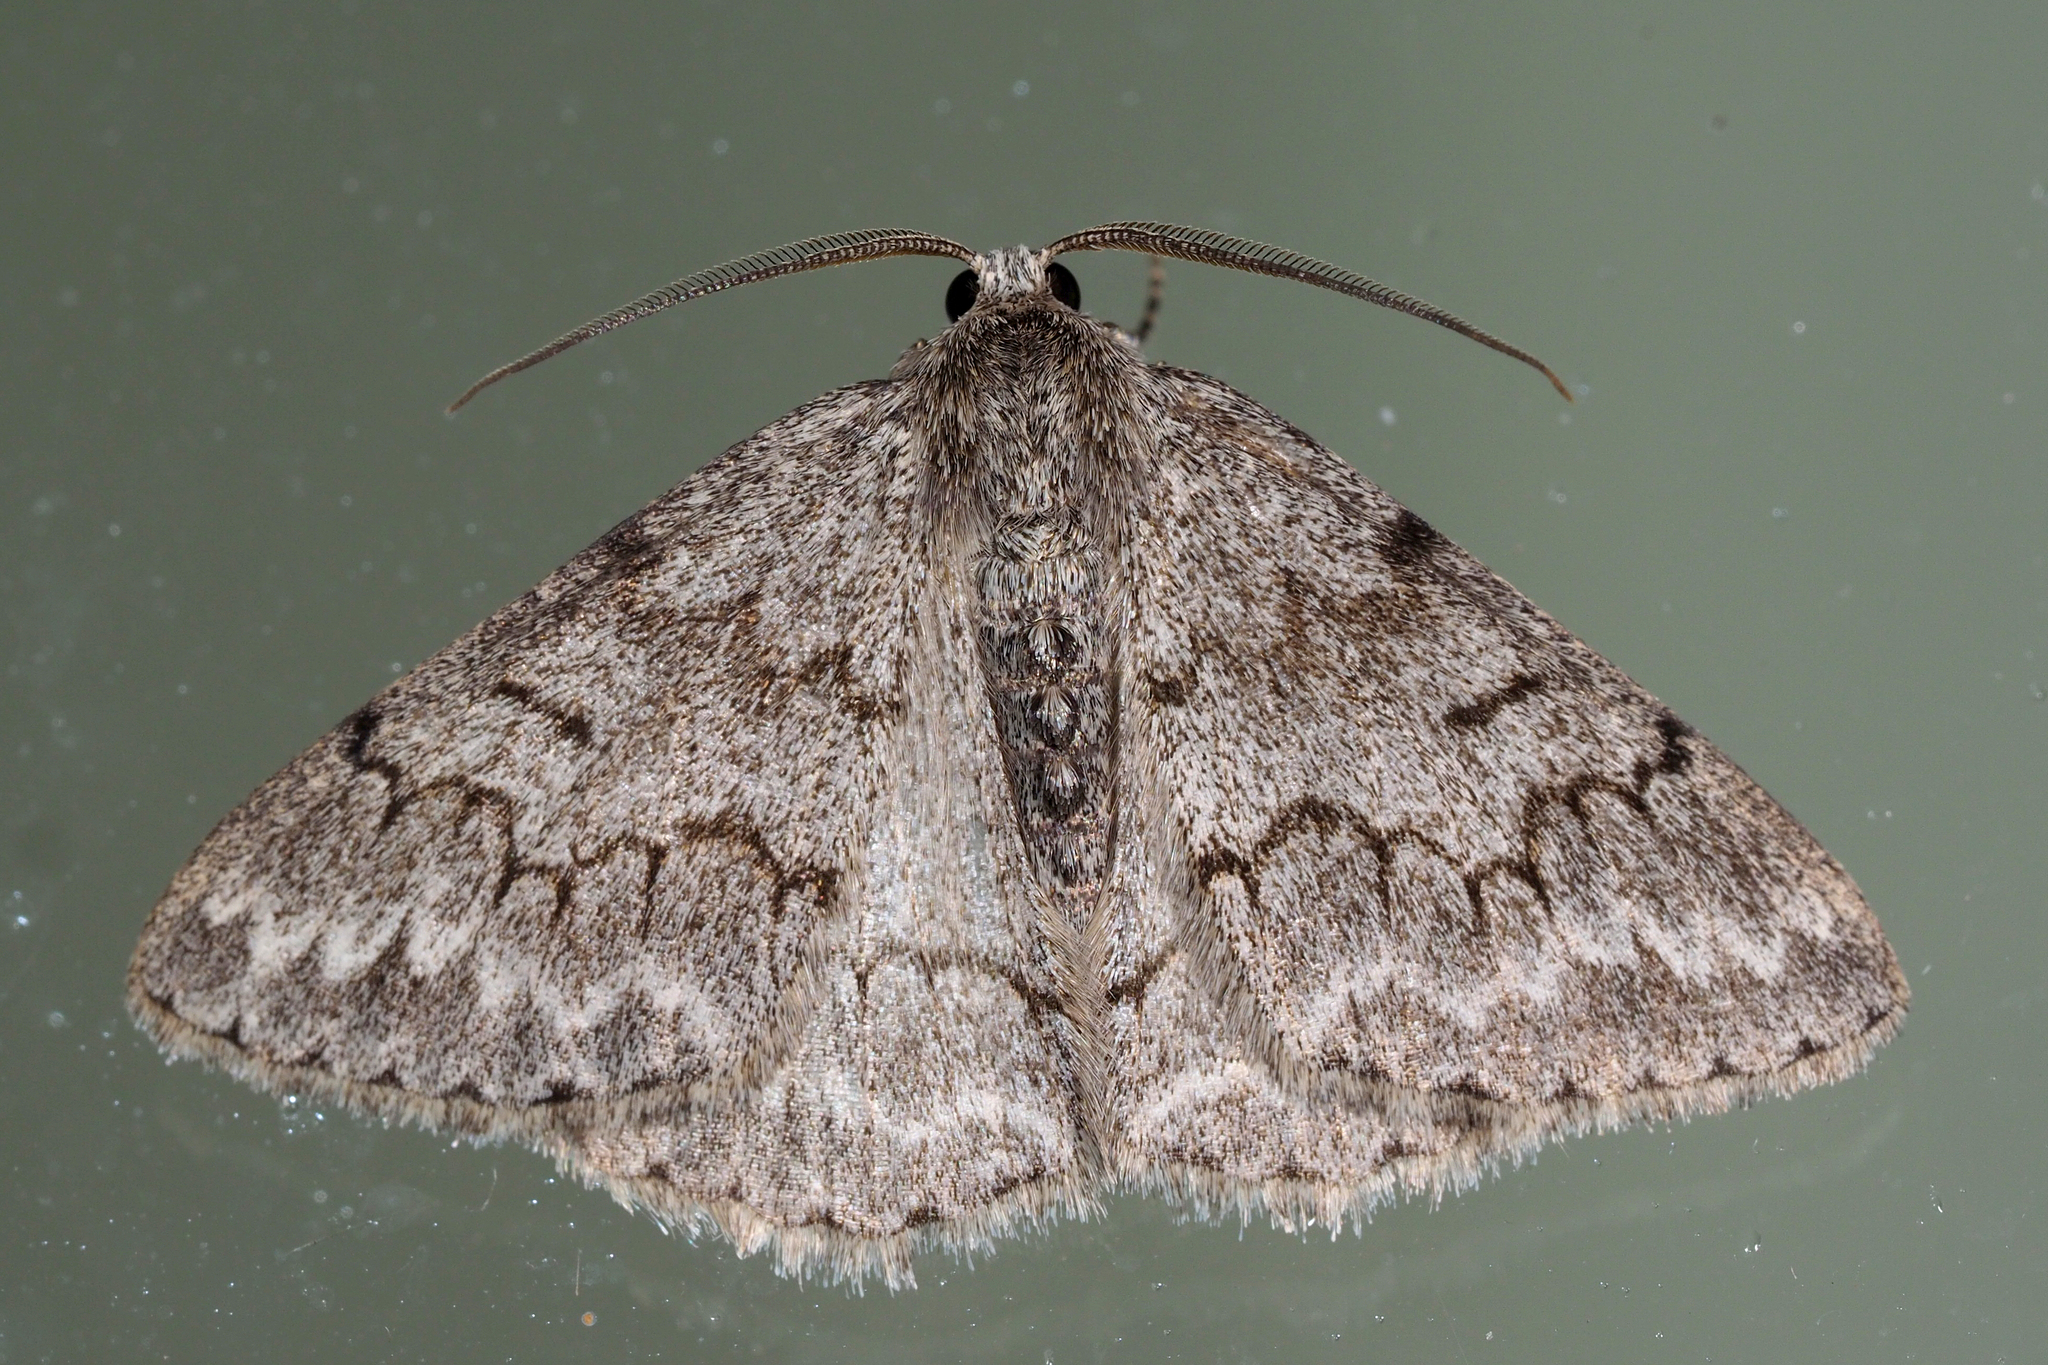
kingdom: Animalia
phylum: Arthropoda
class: Insecta
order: Lepidoptera
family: Geometridae
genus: Pseudoterpna
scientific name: Pseudoterpna coronillaria
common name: Jersey emerald
